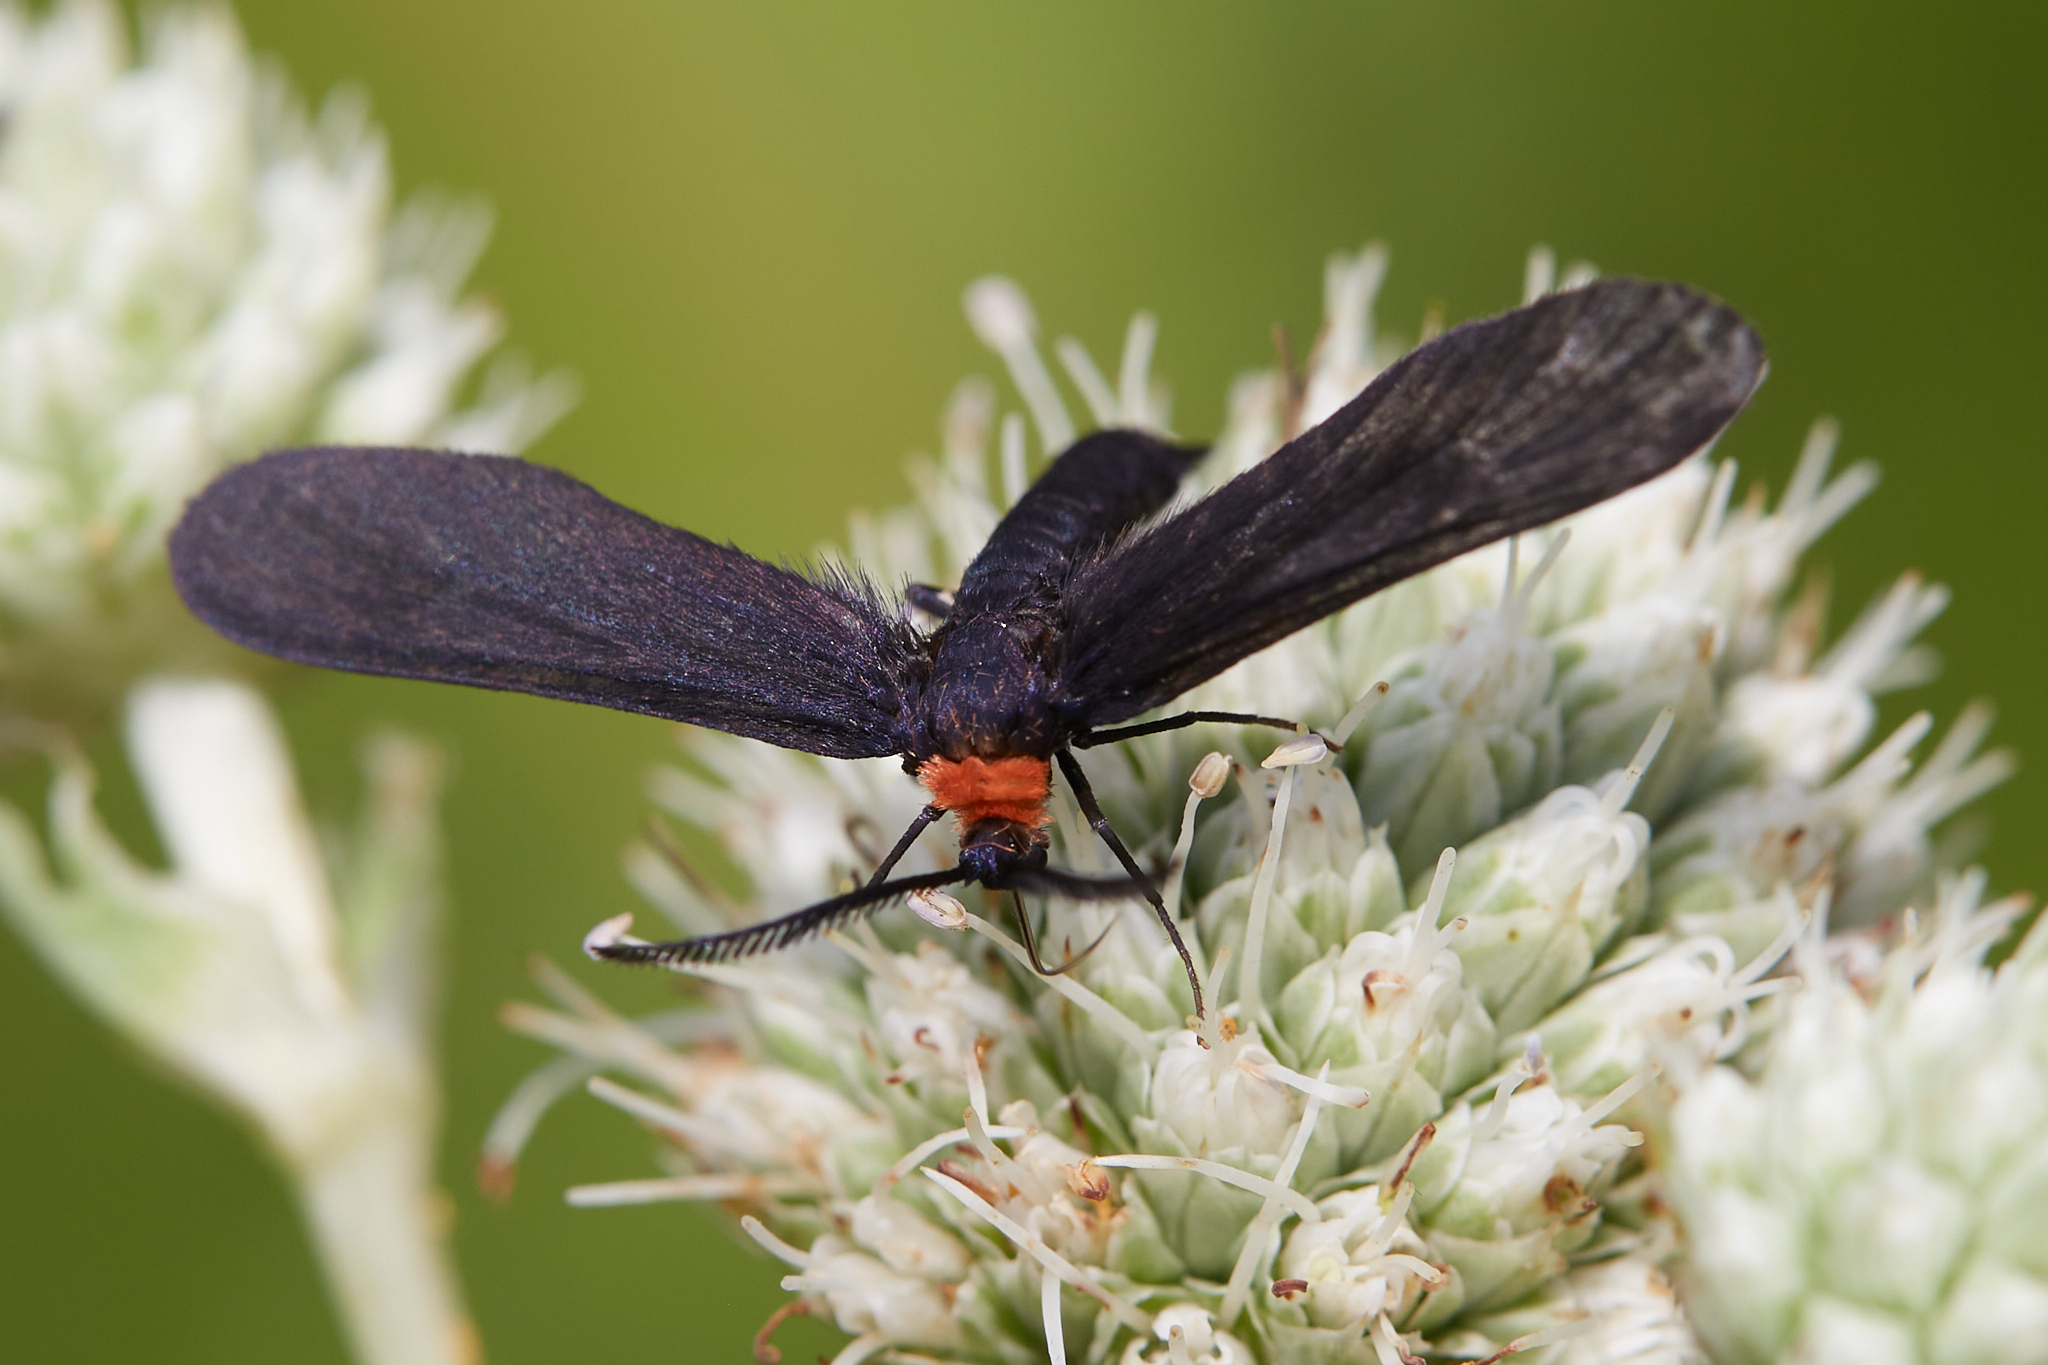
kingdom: Animalia
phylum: Arthropoda
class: Insecta
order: Lepidoptera
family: Zygaenidae
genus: Harrisina
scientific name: Harrisina americana
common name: Grapeleaf skeletonizer moth
